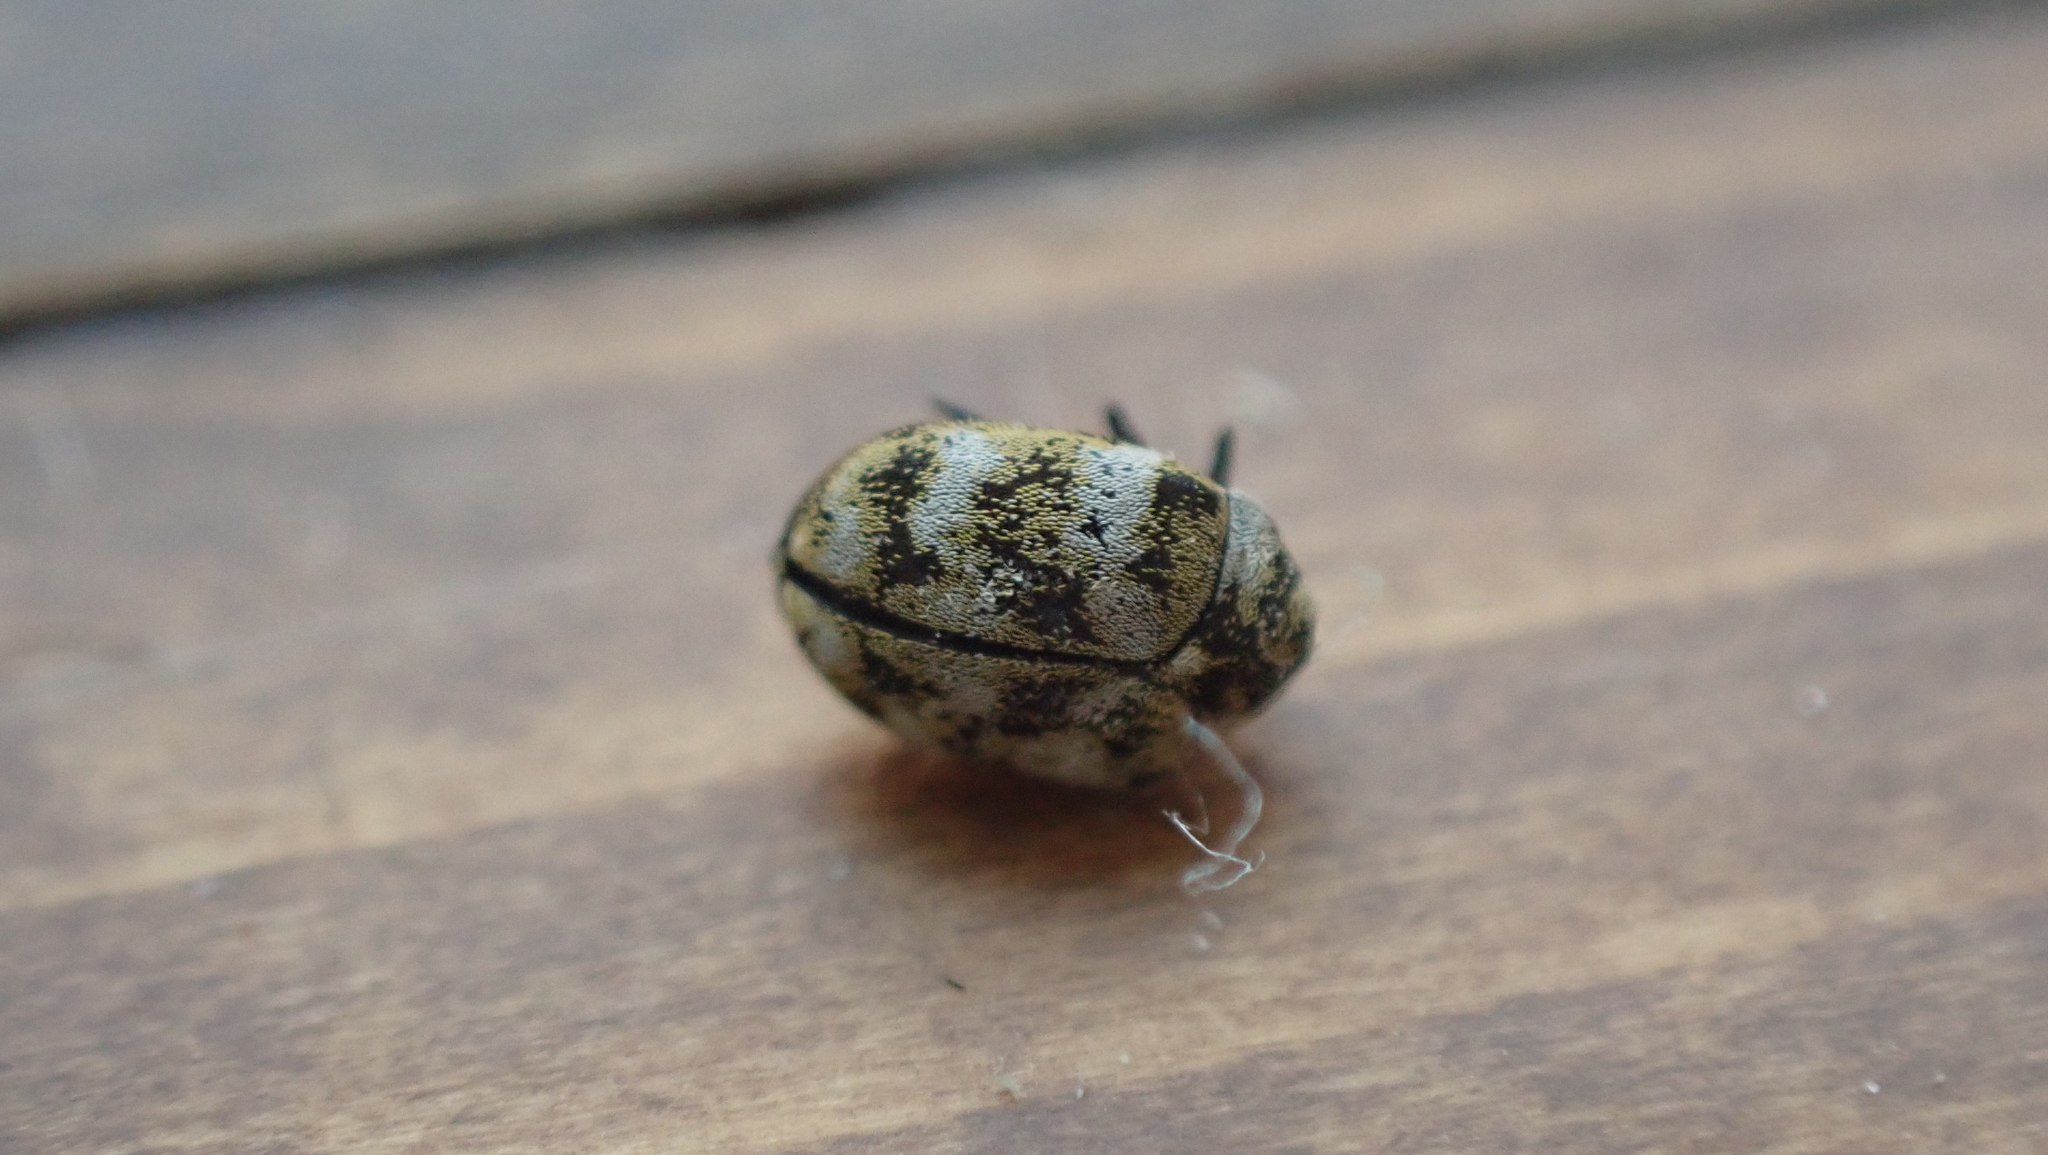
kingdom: Animalia
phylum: Arthropoda
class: Insecta
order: Coleoptera
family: Dermestidae
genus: Anthrenus
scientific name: Anthrenus verbasci
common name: Varied carpet beetle
